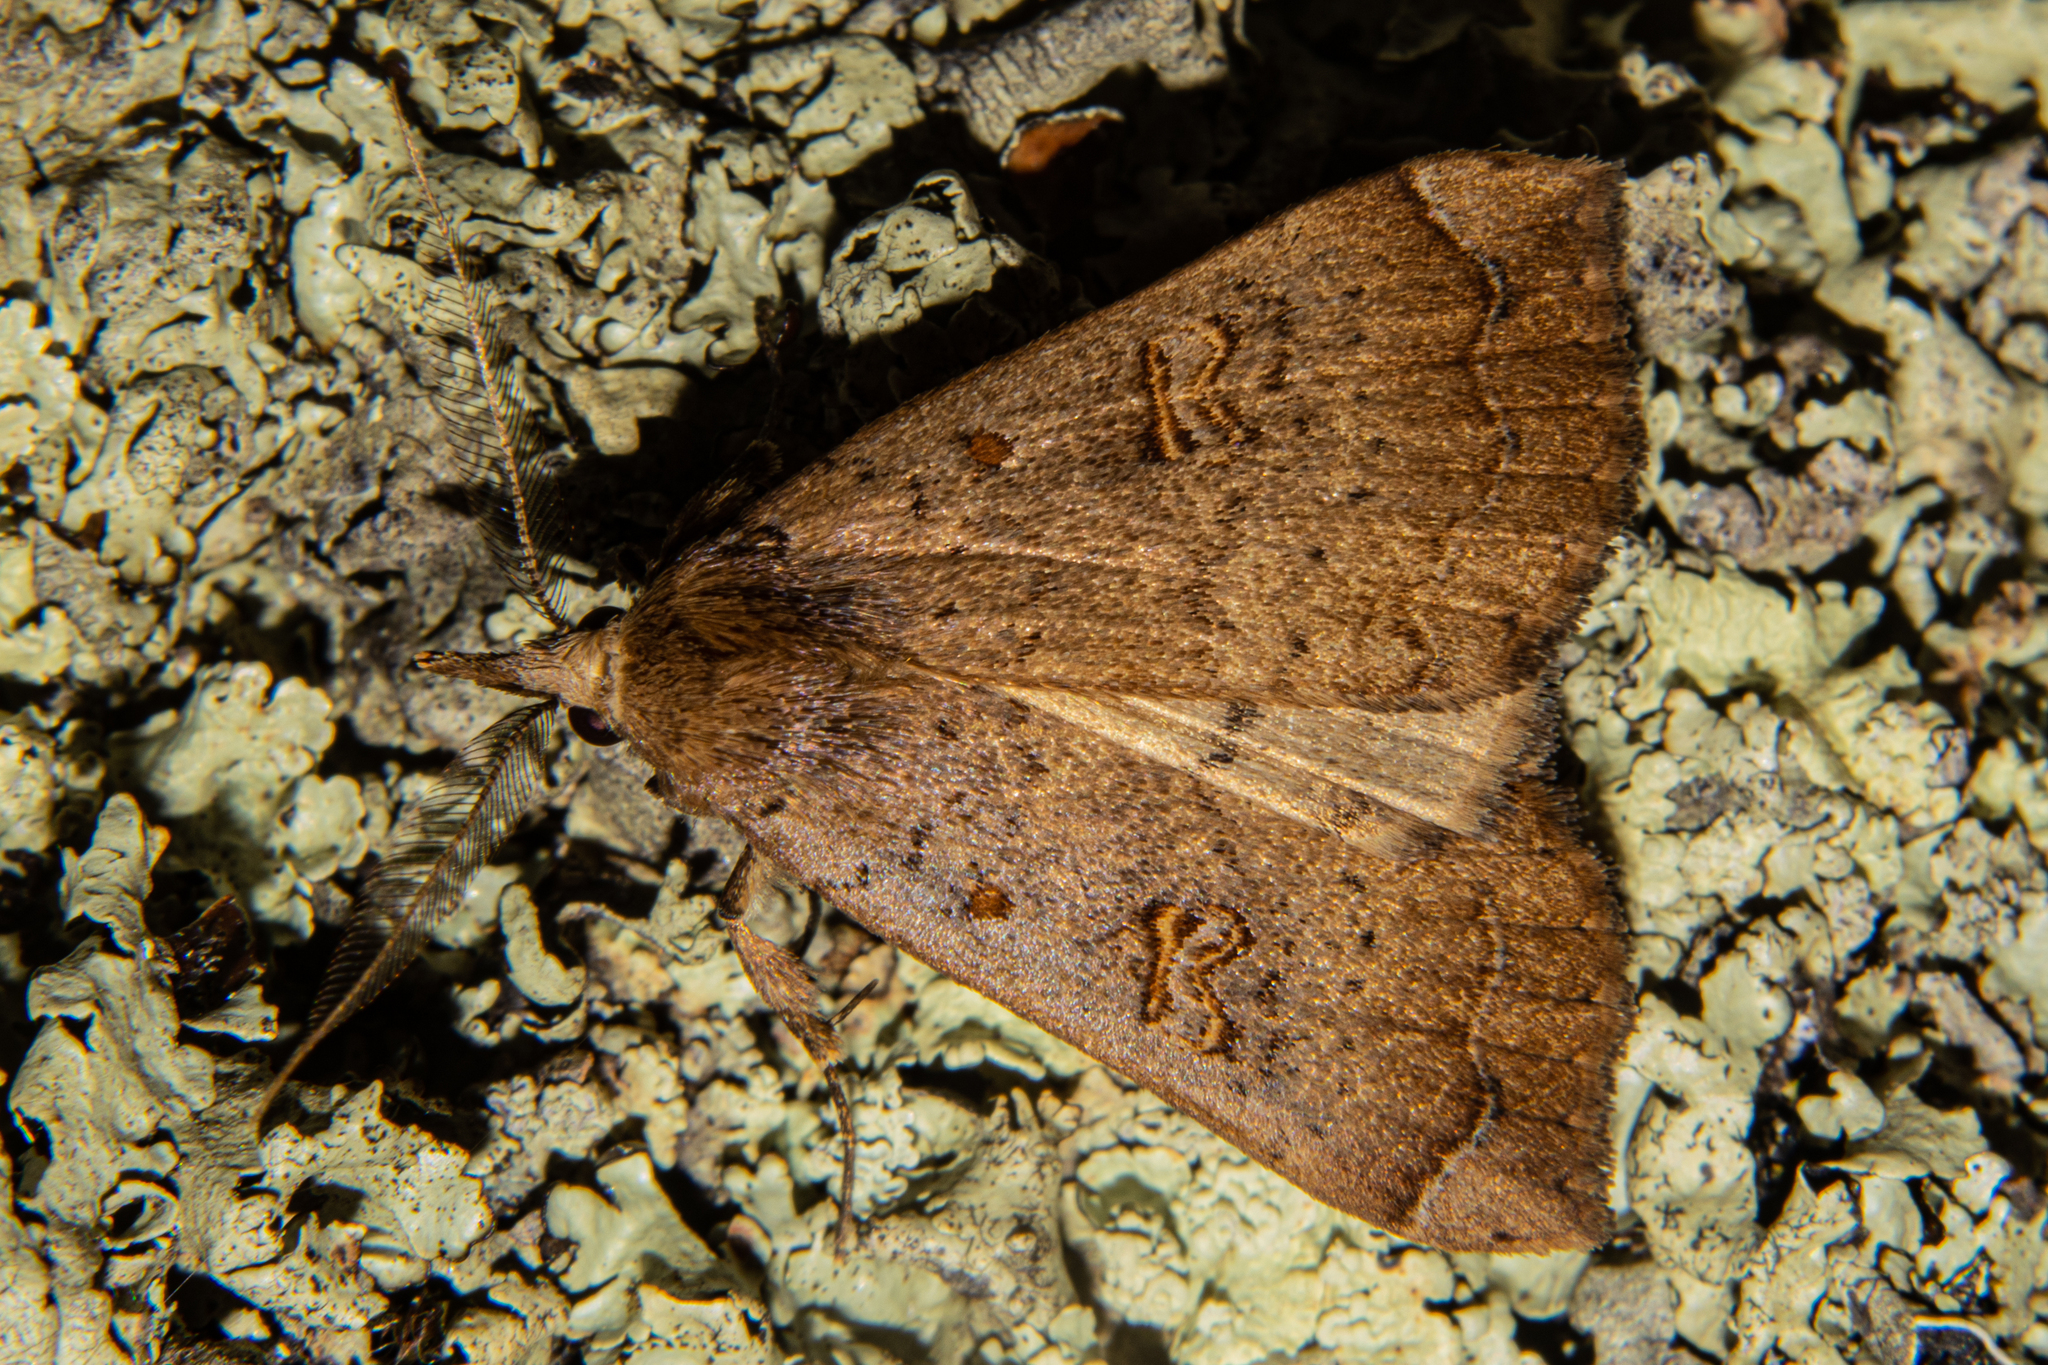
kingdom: Animalia
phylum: Arthropoda
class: Insecta
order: Lepidoptera
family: Erebidae
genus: Rhapsa
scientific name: Rhapsa scotosialis
